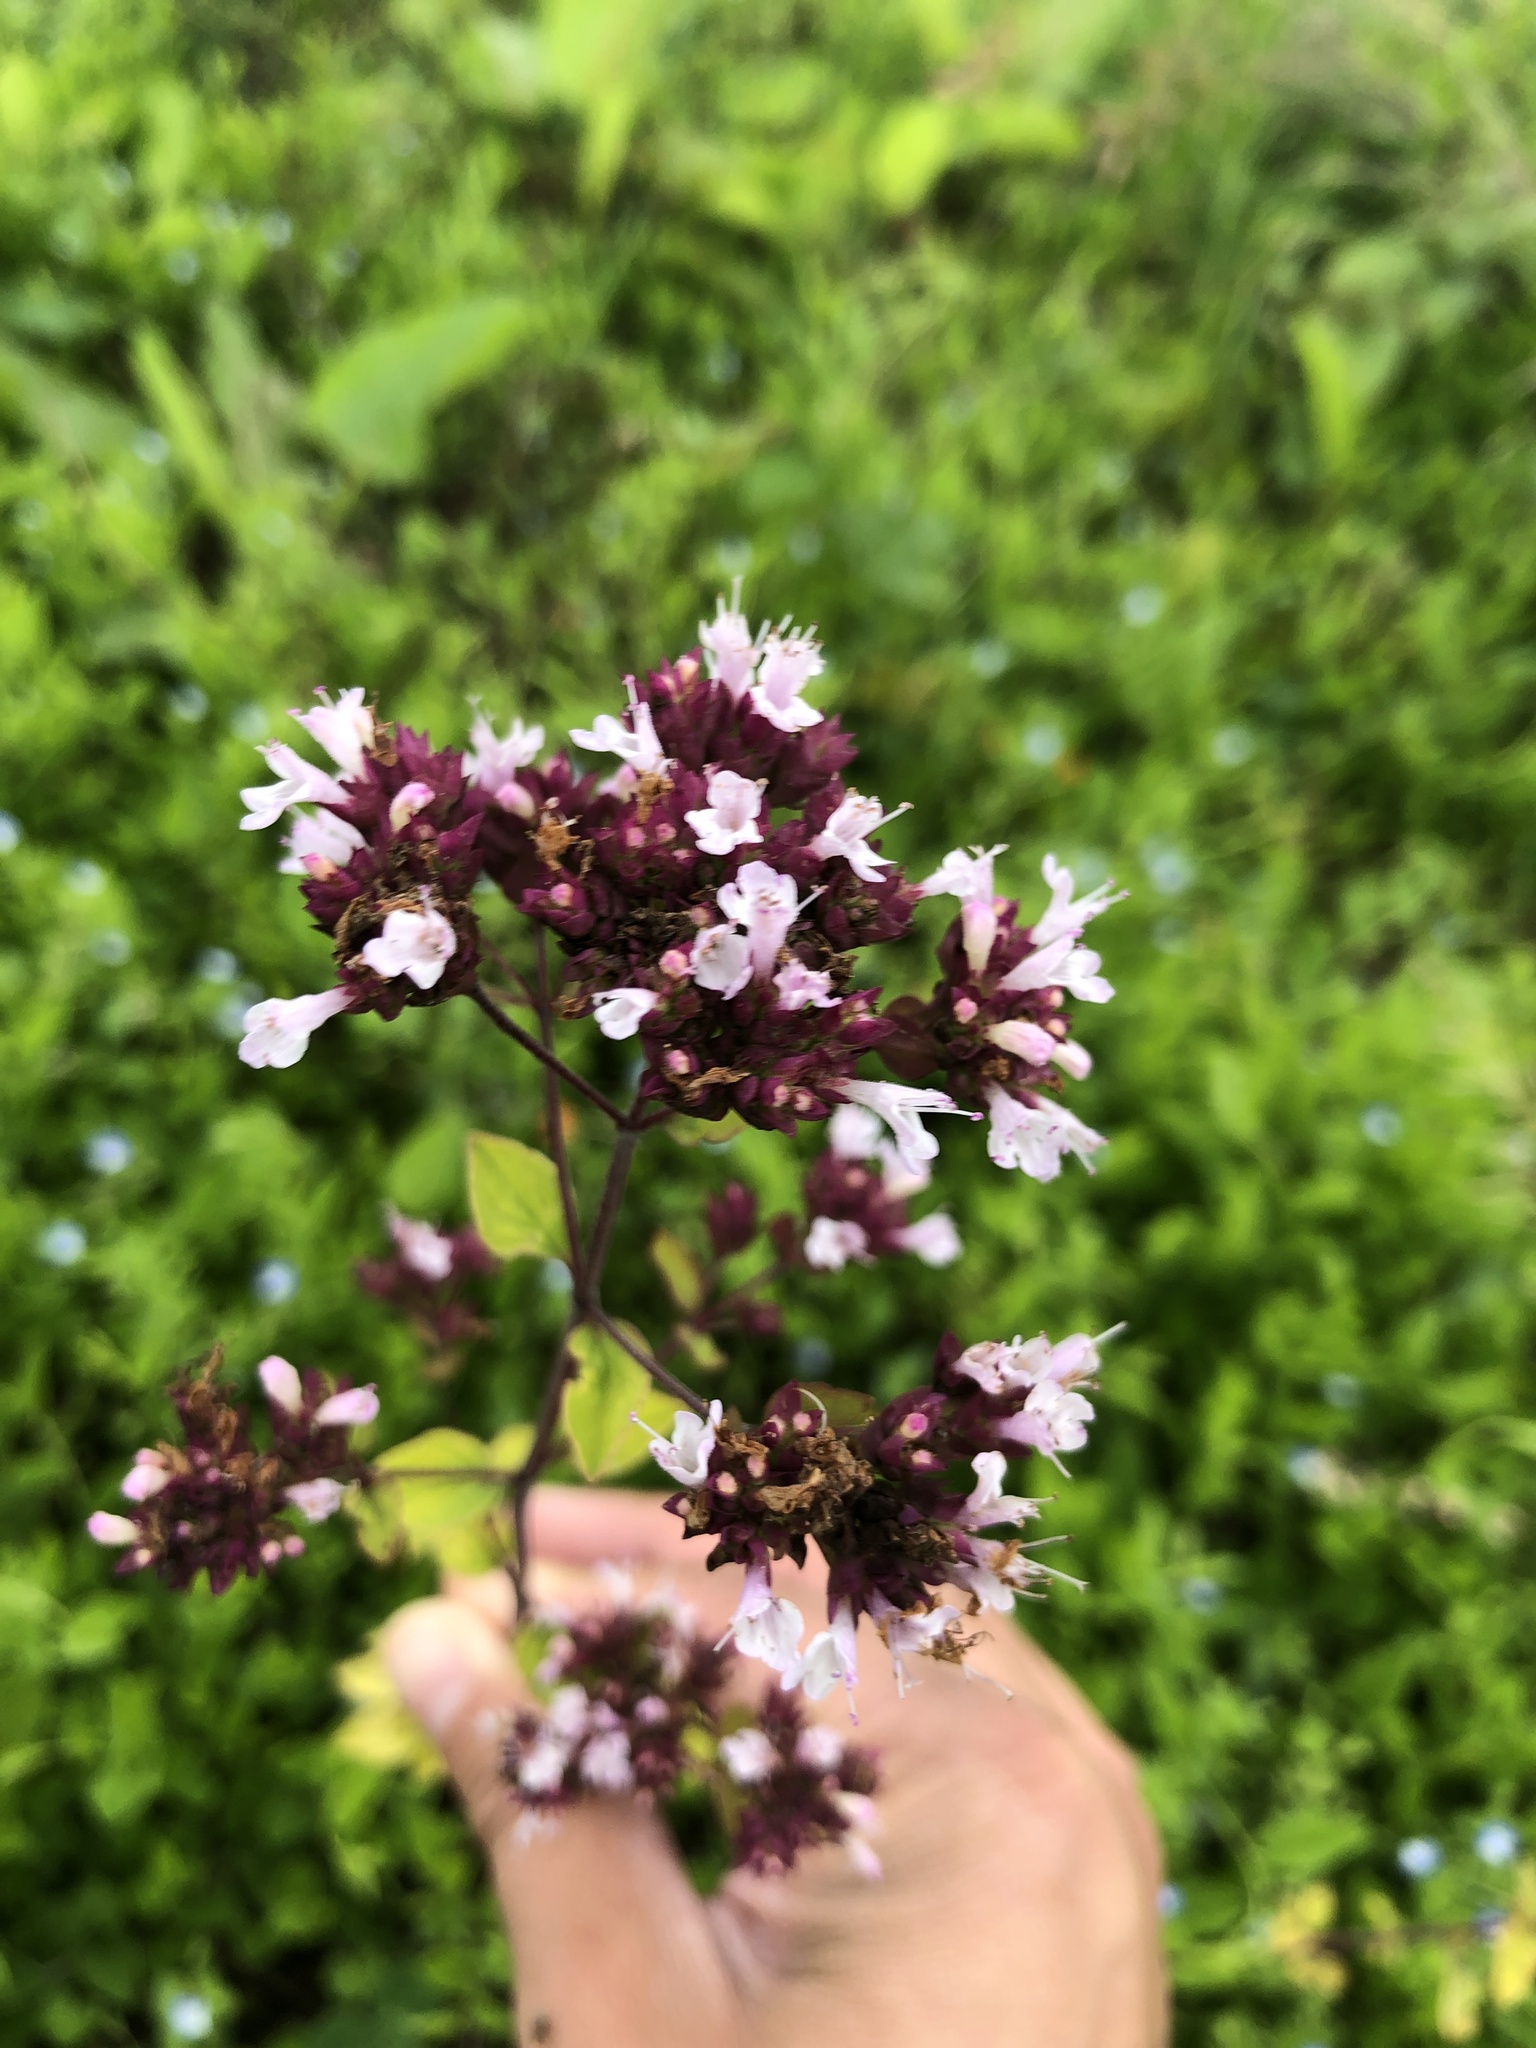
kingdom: Plantae
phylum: Tracheophyta
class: Magnoliopsida
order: Lamiales
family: Lamiaceae
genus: Origanum
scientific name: Origanum vulgare
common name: Wild marjoram
